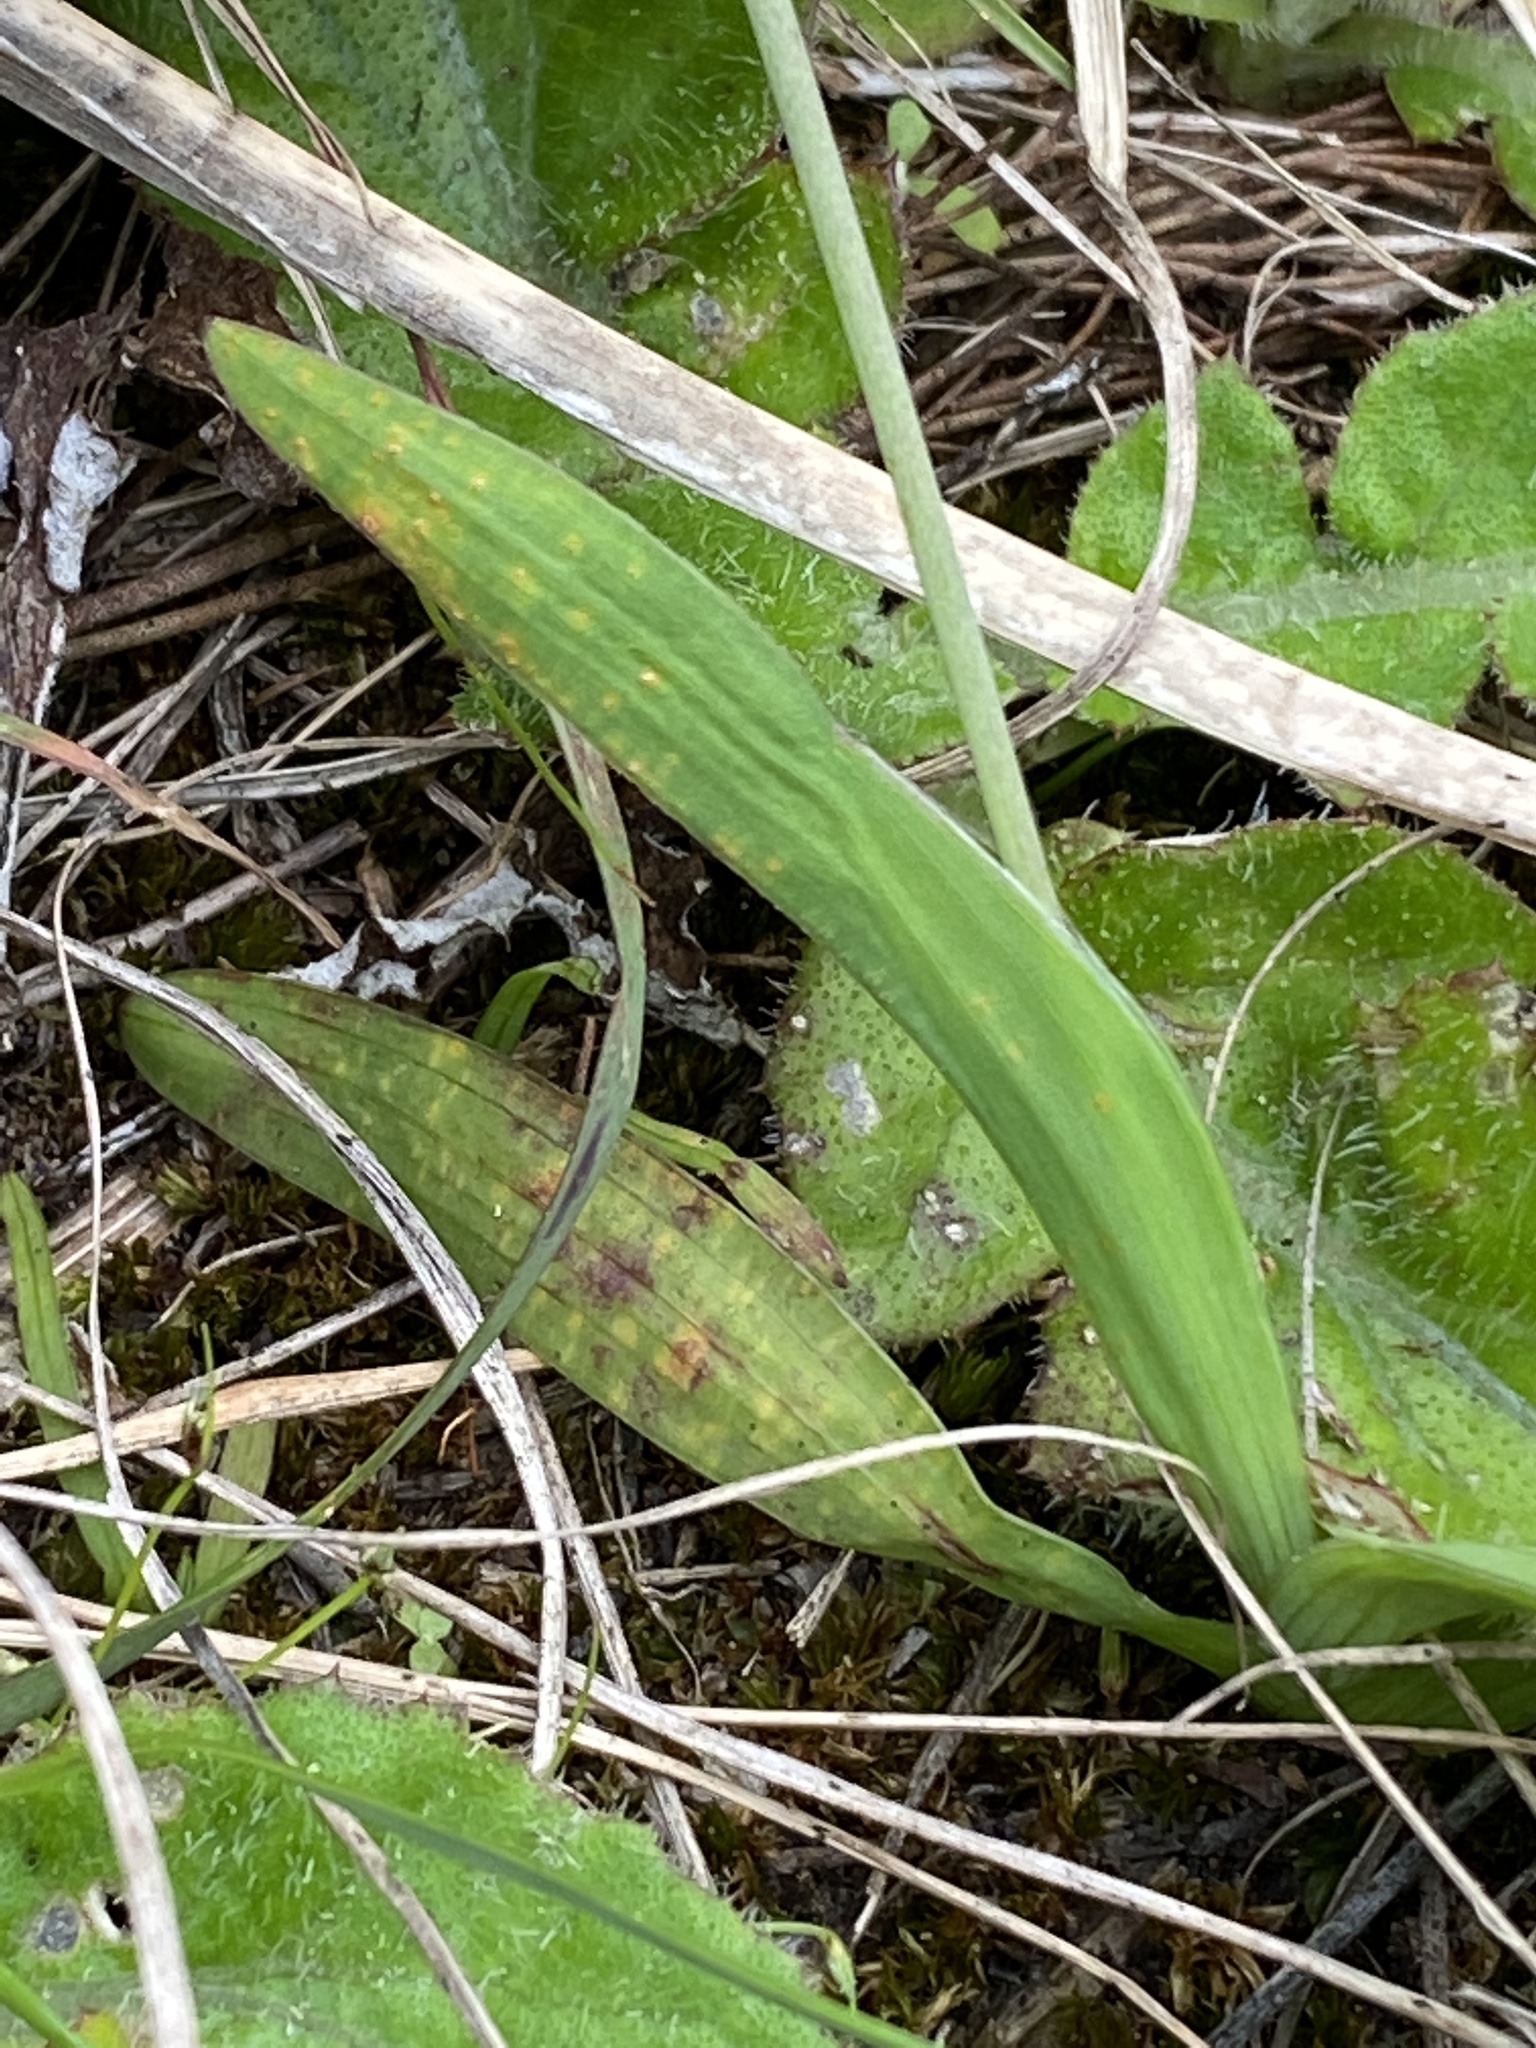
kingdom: Plantae
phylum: Tracheophyta
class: Liliopsida
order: Asparagales
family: Iridaceae
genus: Hesperantha
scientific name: Hesperantha falcata
